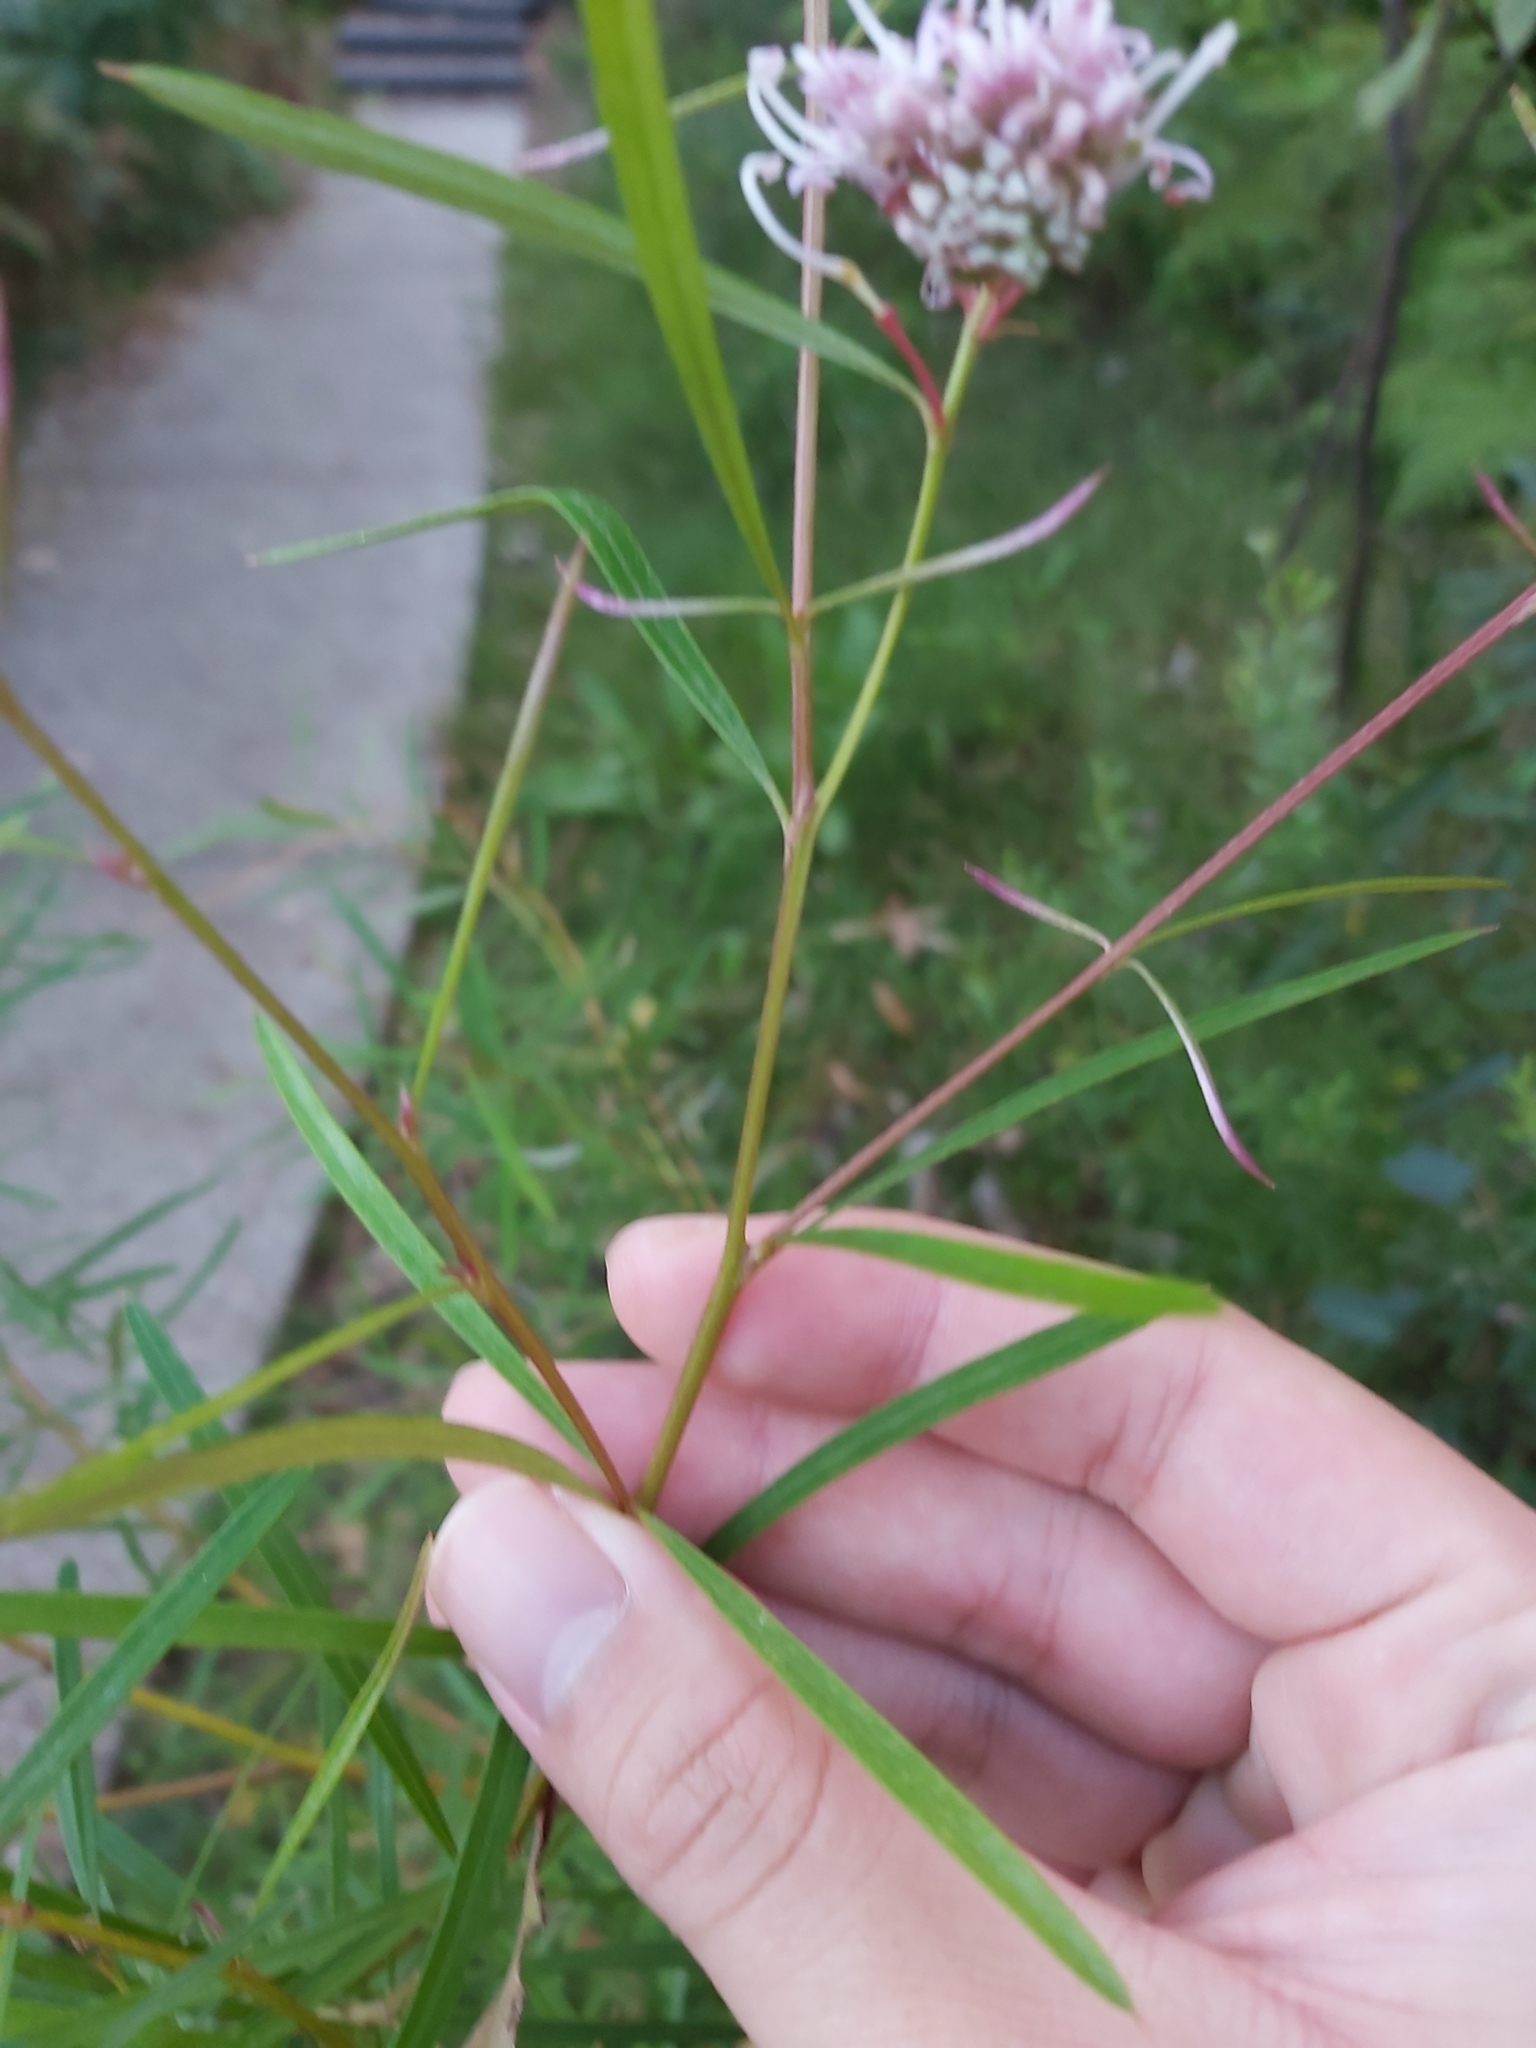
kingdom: Plantae
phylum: Tracheophyta
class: Magnoliopsida
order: Proteales
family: Proteaceae
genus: Grevillea
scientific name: Grevillea linearifolia
